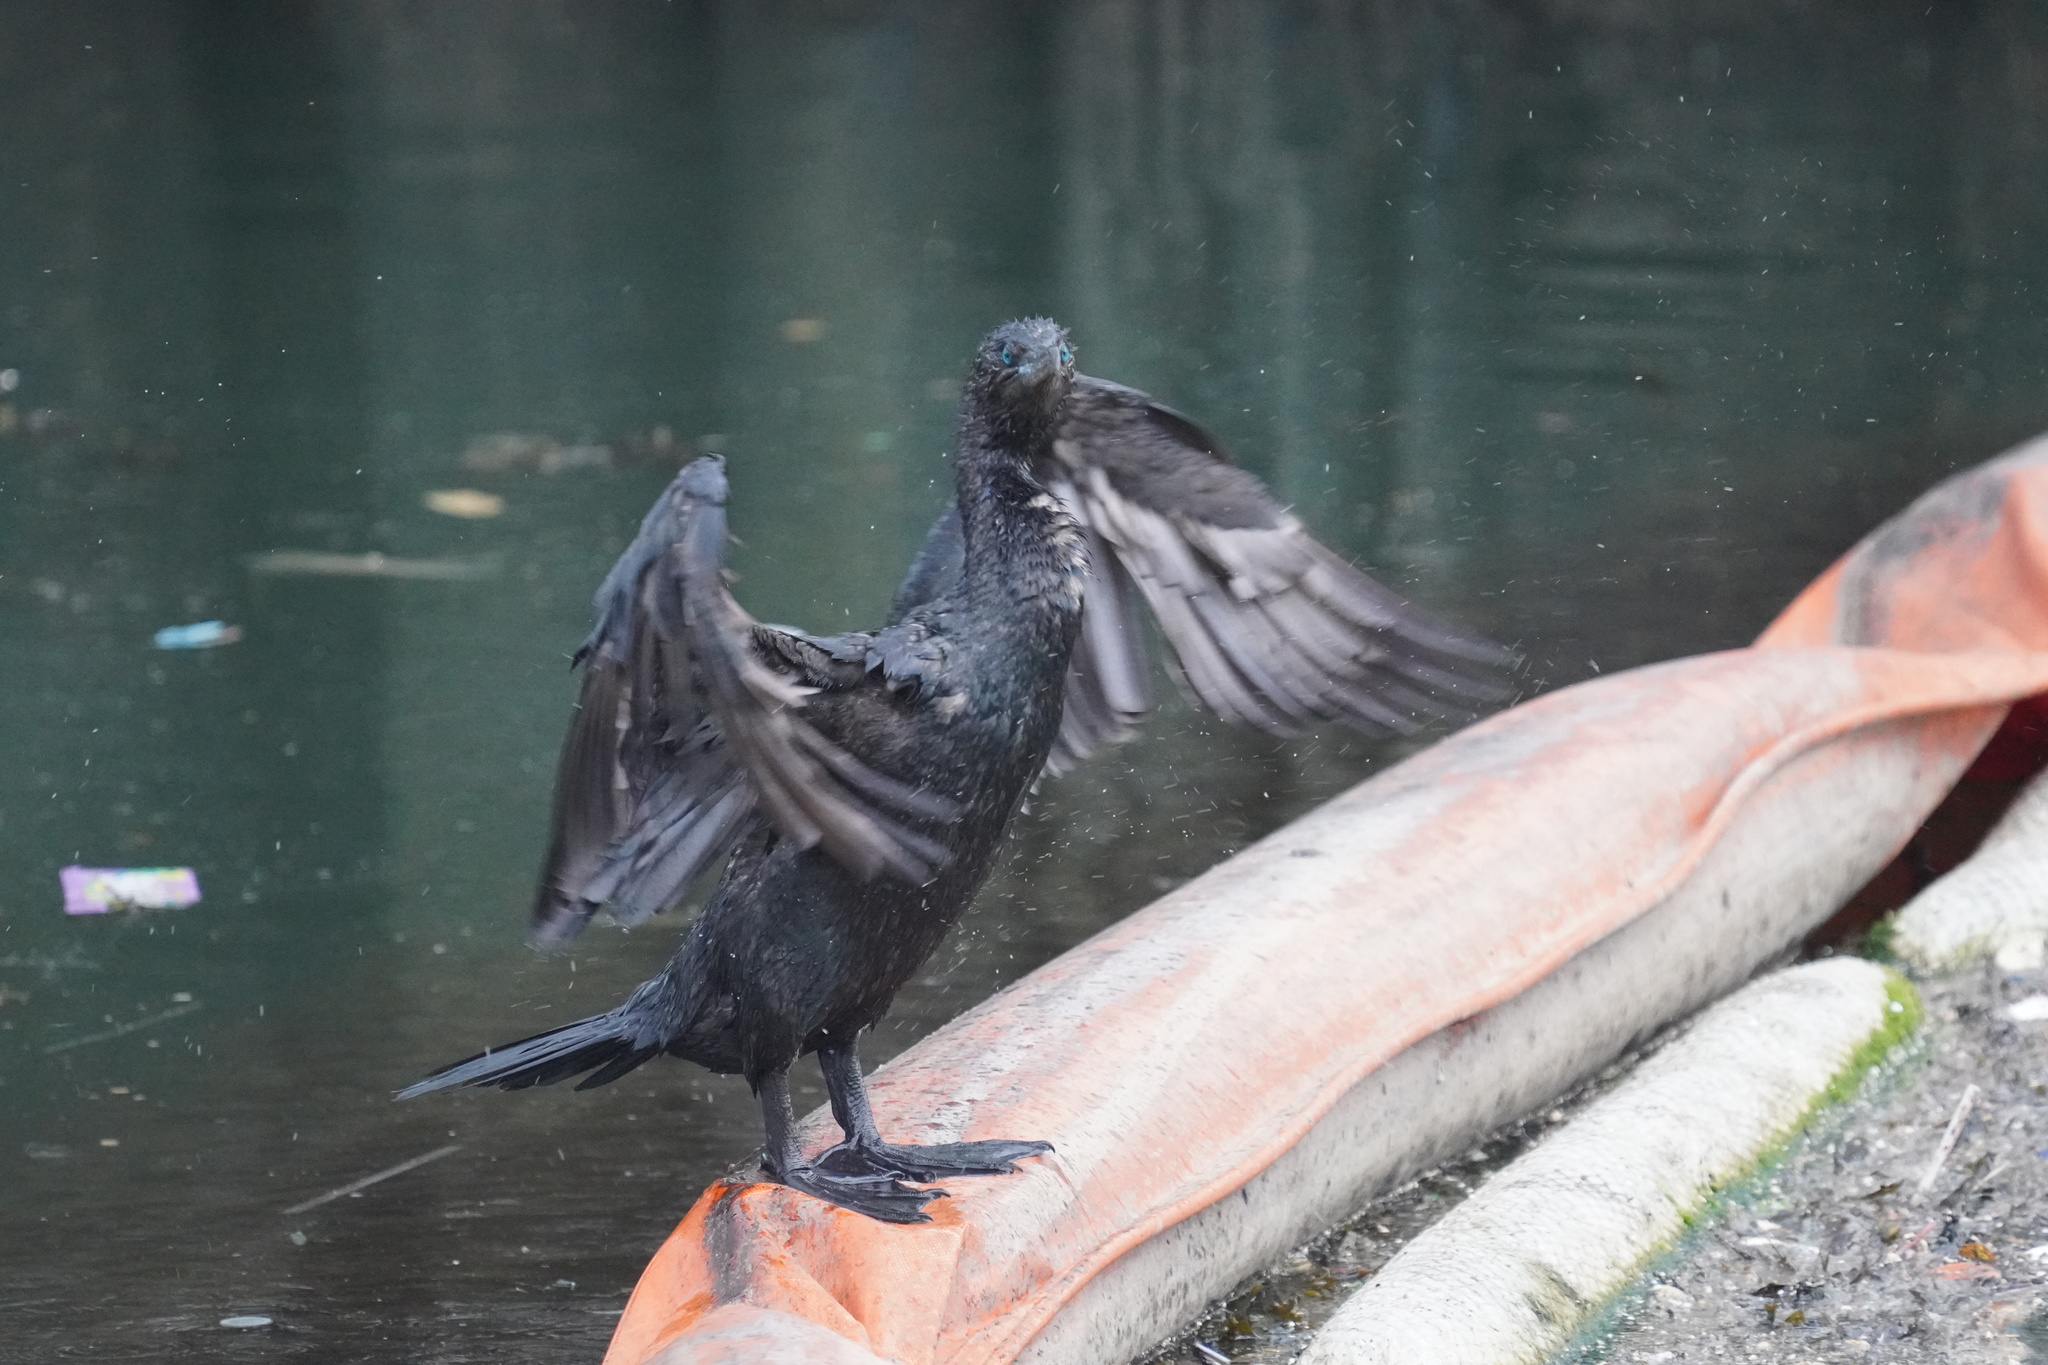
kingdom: Animalia
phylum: Chordata
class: Aves
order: Suliformes
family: Phalacrocoracidae
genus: Phalacrocorax
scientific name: Phalacrocorax auritus
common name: Double-crested cormorant
